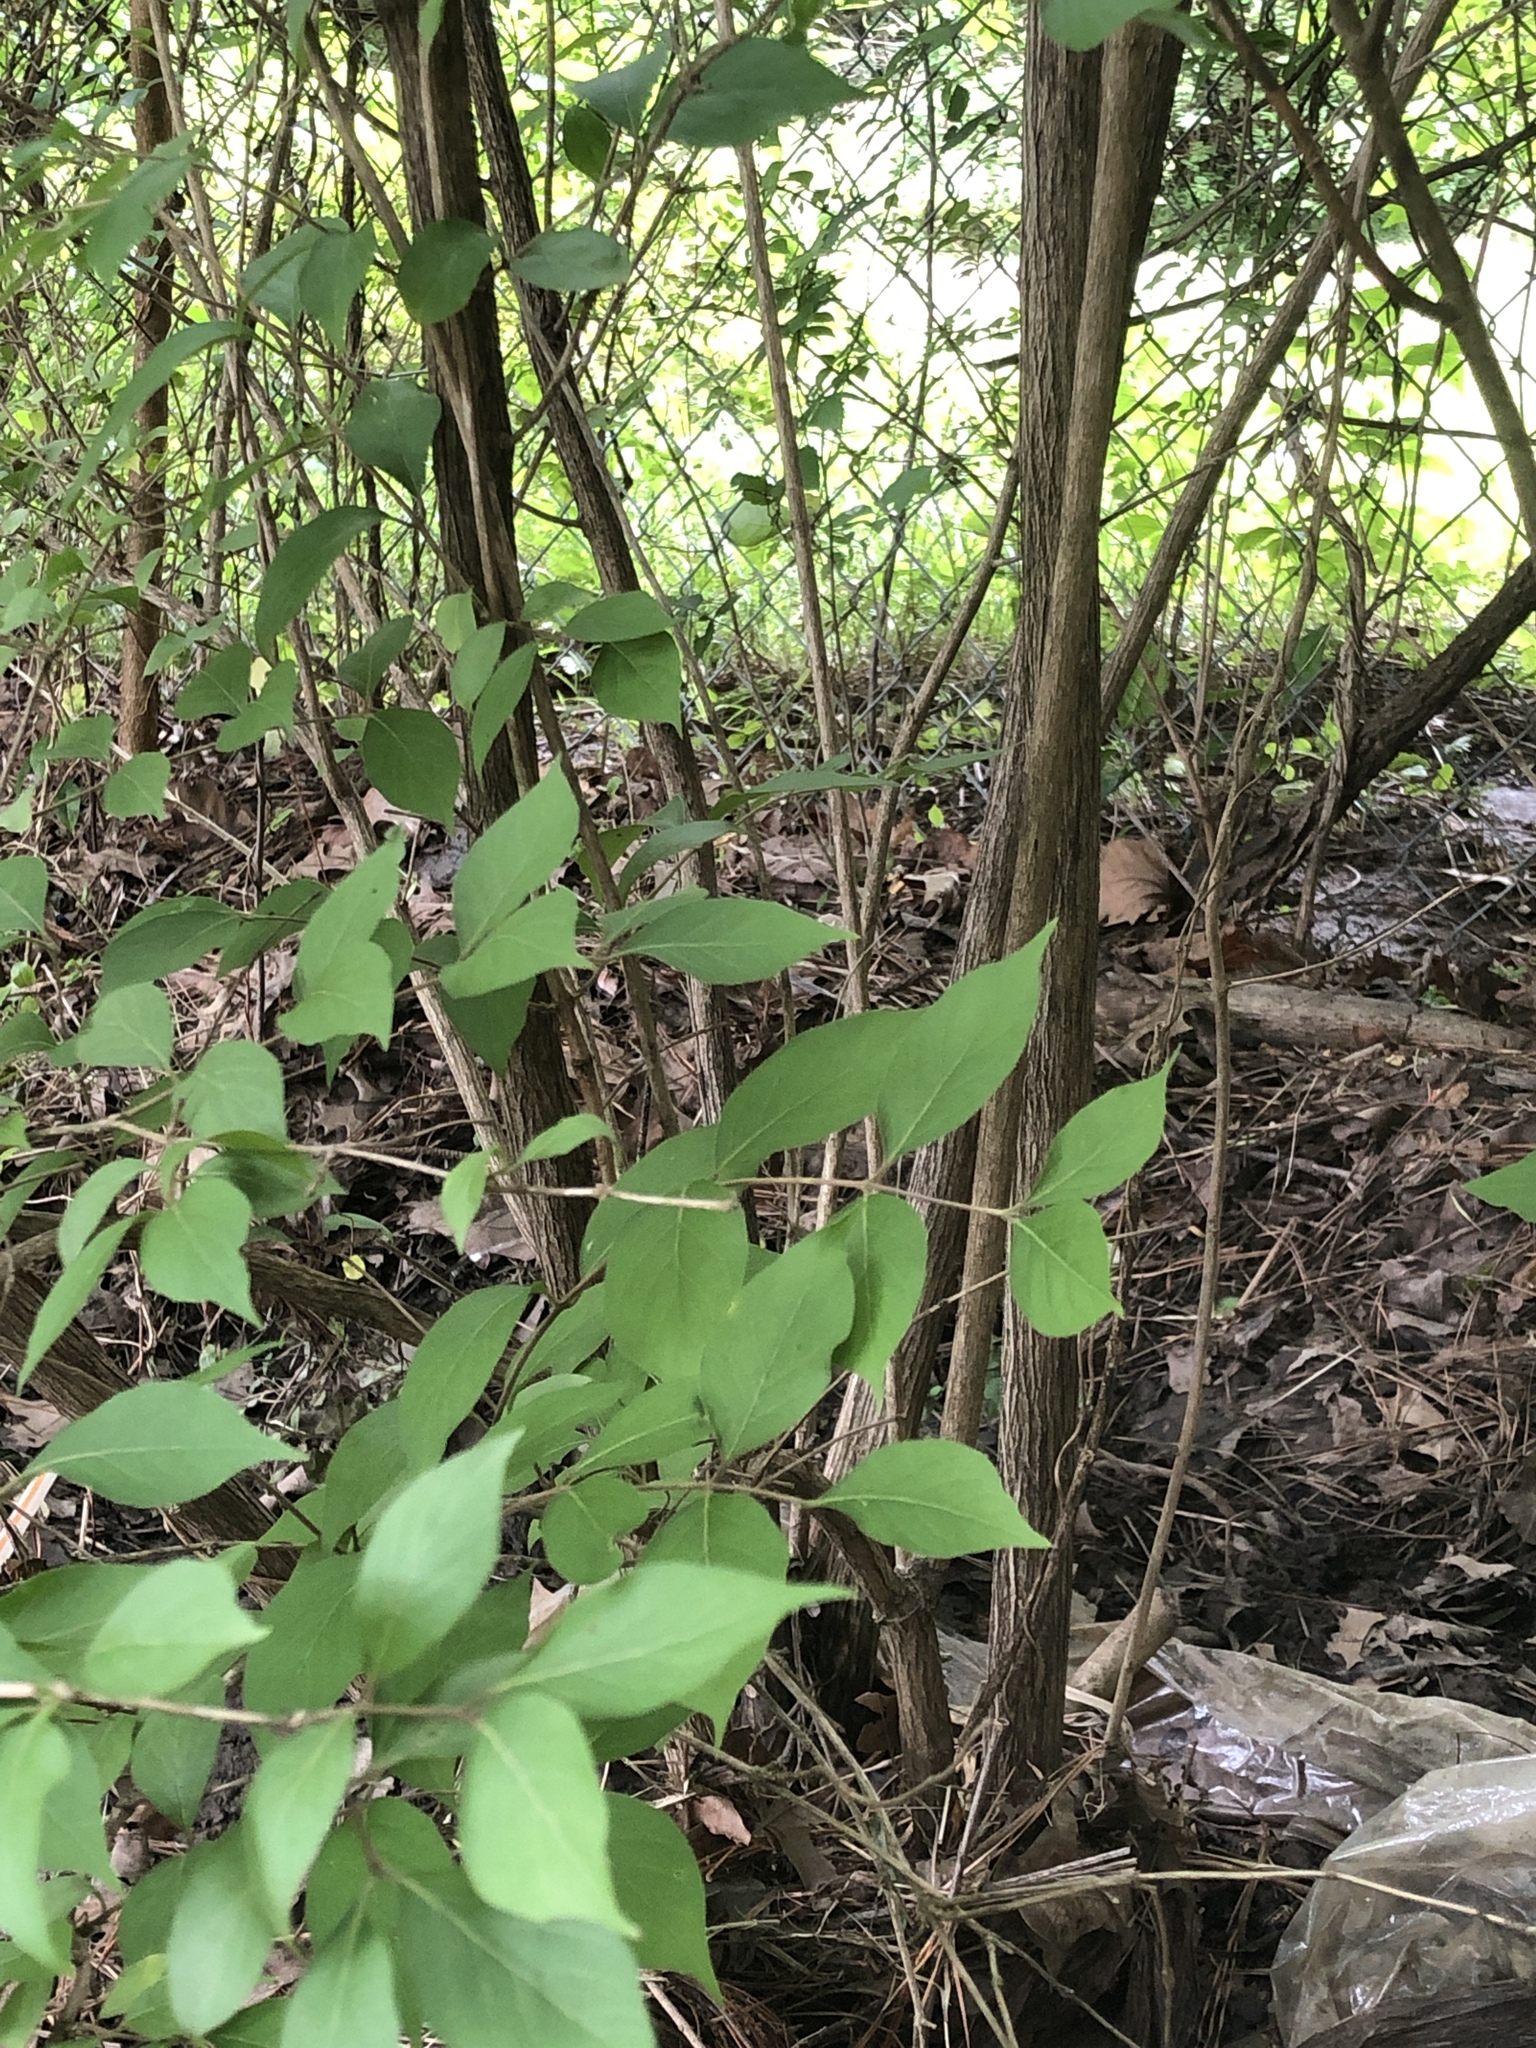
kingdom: Plantae
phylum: Tracheophyta
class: Magnoliopsida
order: Dipsacales
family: Caprifoliaceae
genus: Lonicera
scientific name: Lonicera maackii
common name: Amur honeysuckle
